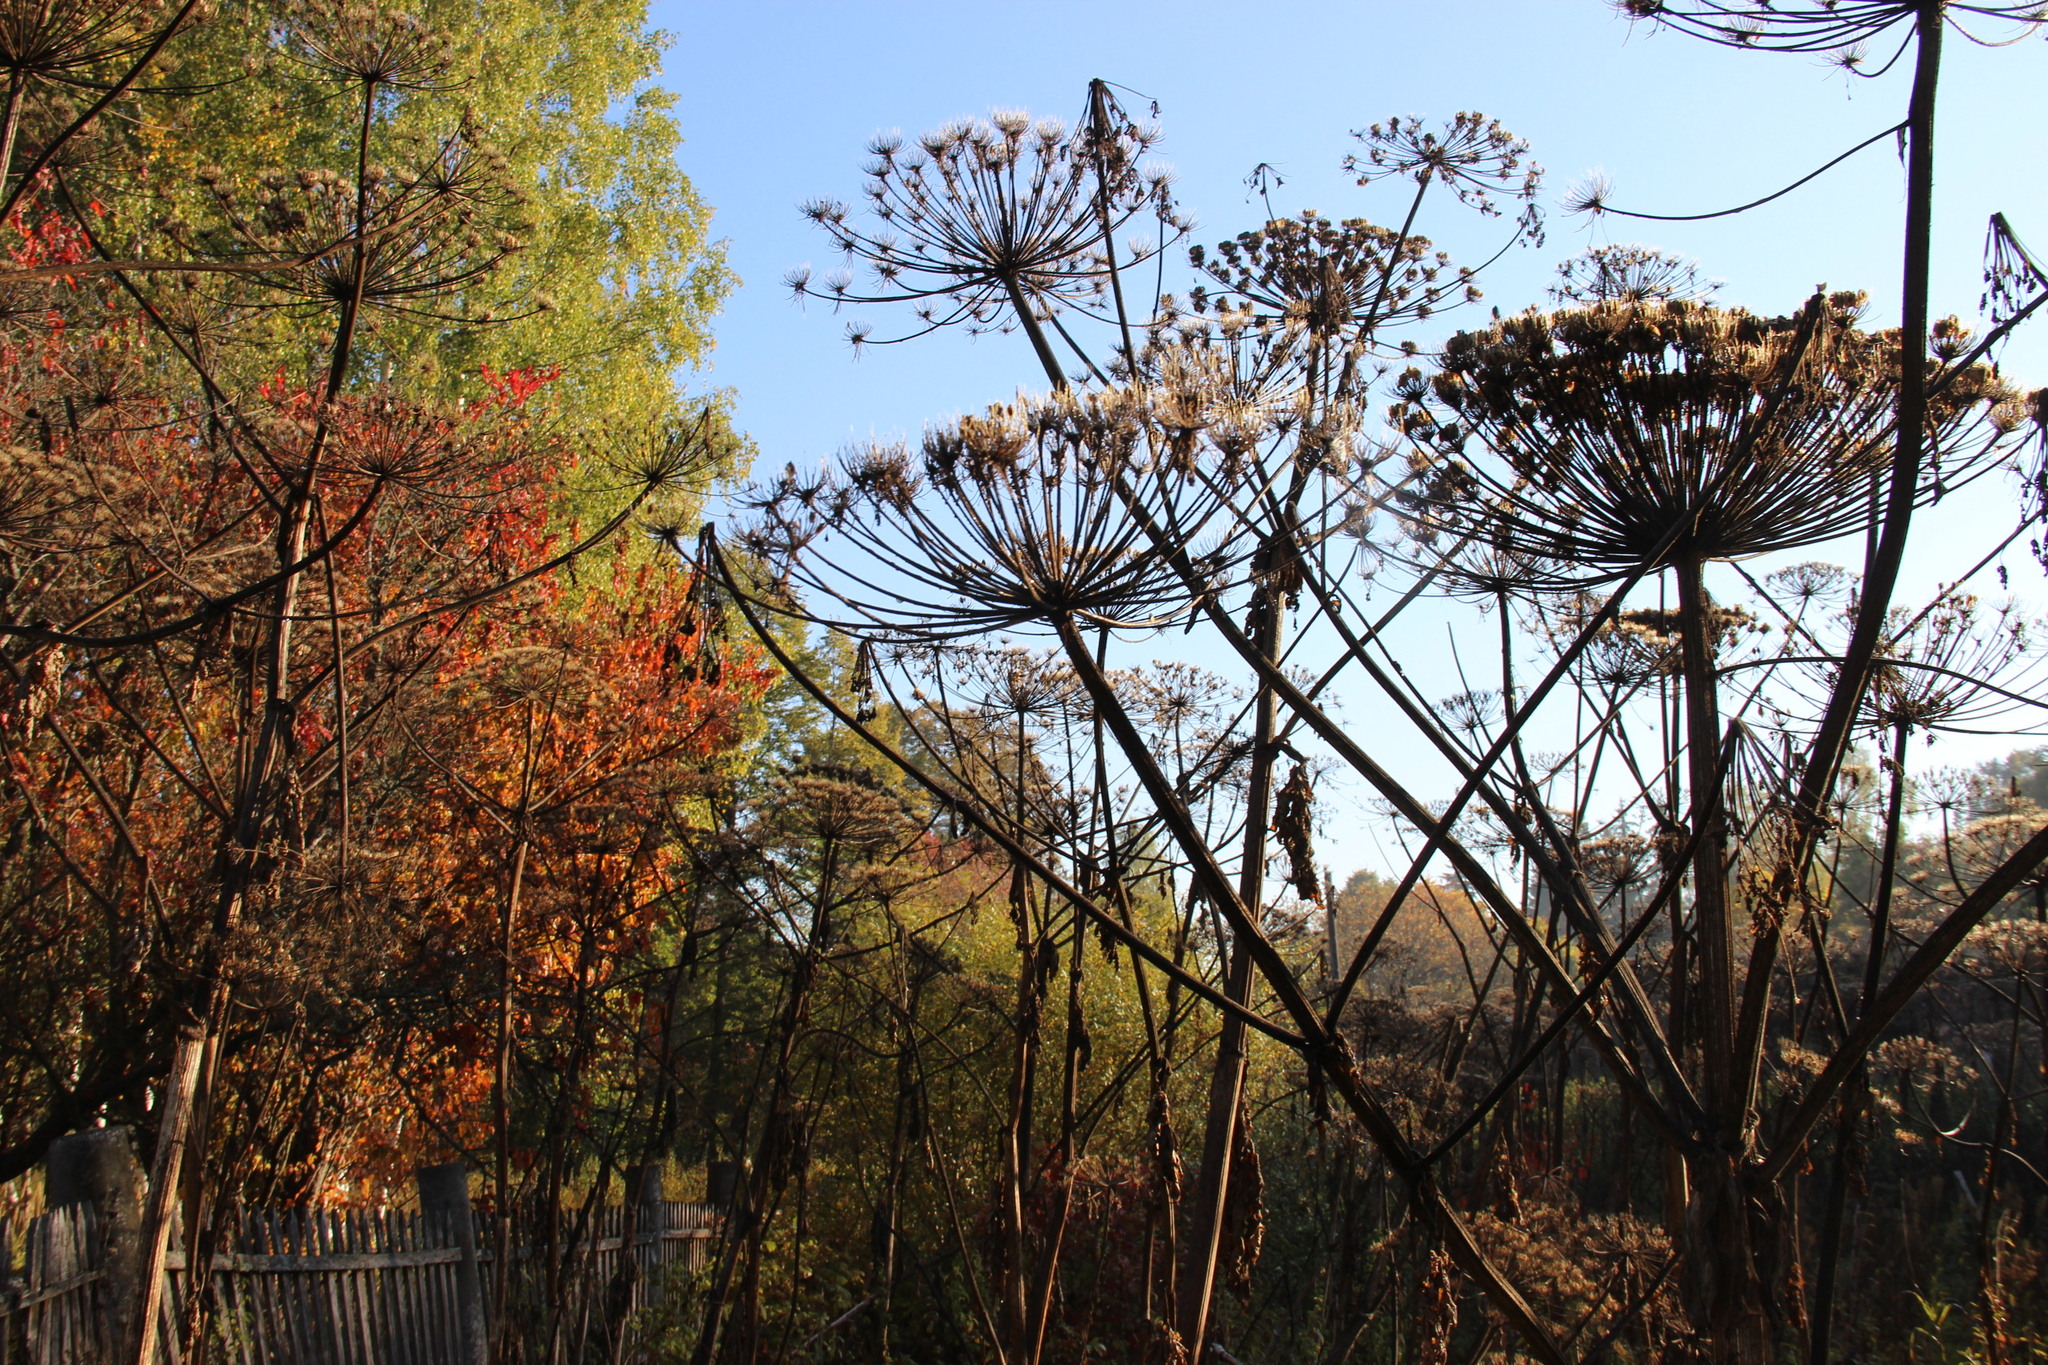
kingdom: Plantae
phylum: Tracheophyta
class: Magnoliopsida
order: Apiales
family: Apiaceae
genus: Heracleum
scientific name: Heracleum sosnowskyi
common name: Sosnowsky's hogweed
